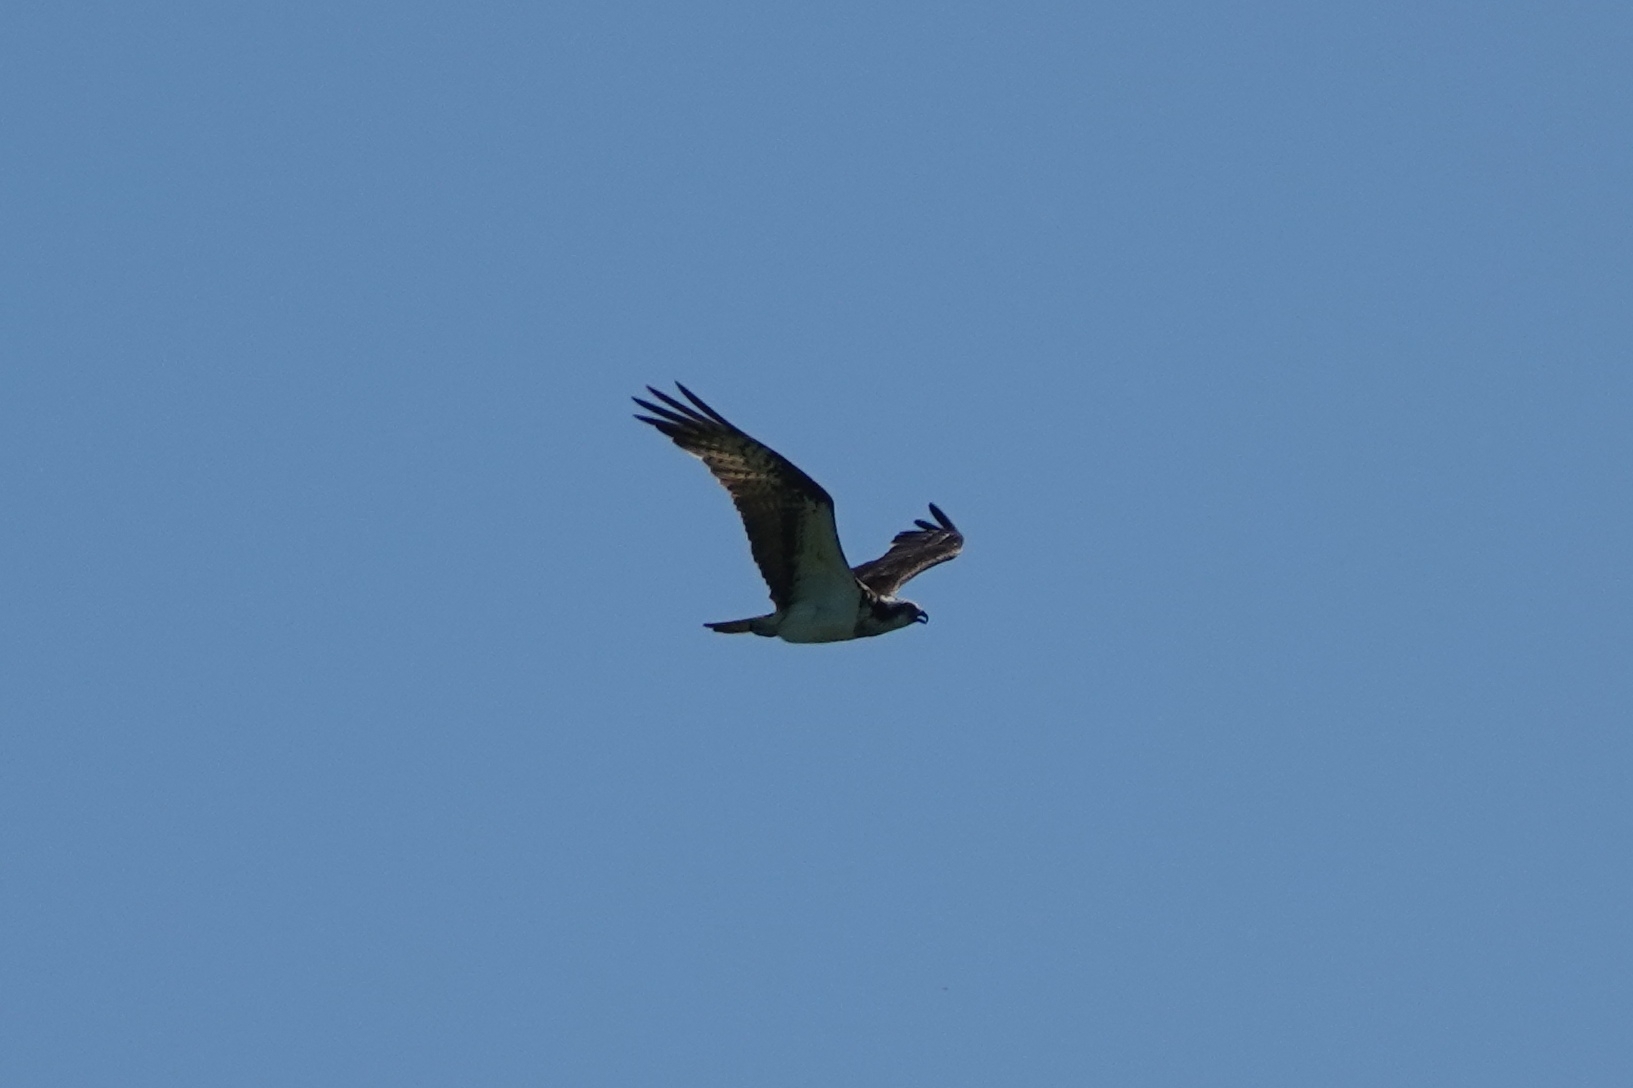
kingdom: Animalia
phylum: Chordata
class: Aves
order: Accipitriformes
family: Pandionidae
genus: Pandion
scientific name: Pandion haliaetus
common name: Osprey
